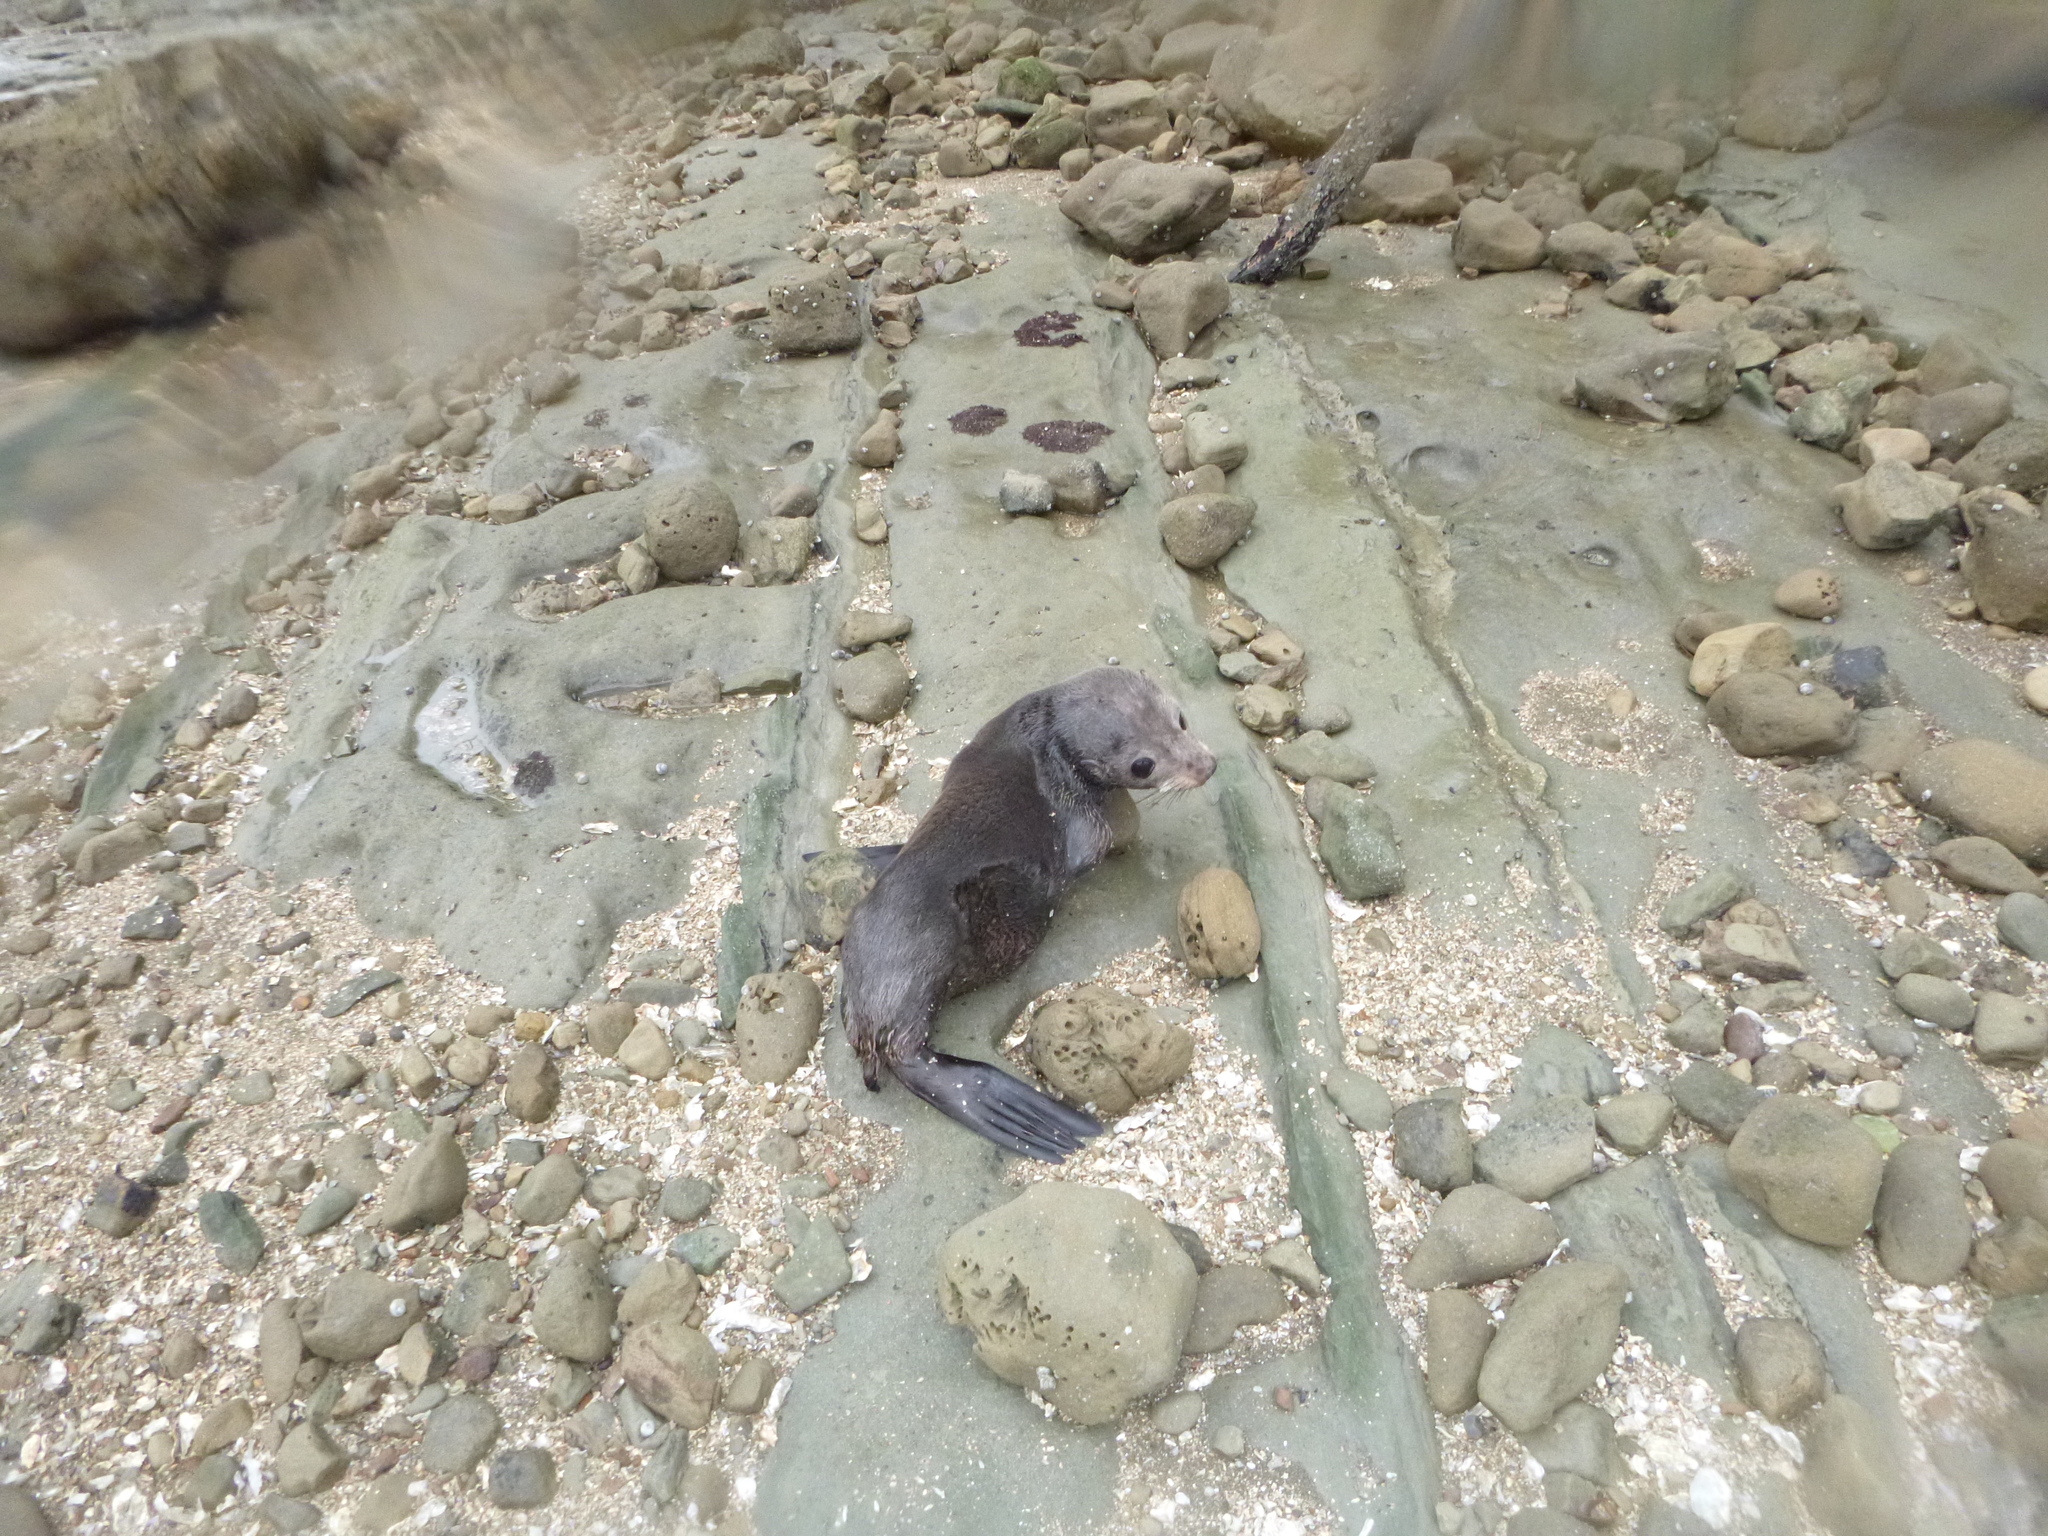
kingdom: Animalia
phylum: Chordata
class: Mammalia
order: Carnivora
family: Otariidae
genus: Arctocephalus
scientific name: Arctocephalus forsteri
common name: New zealand fur seal
